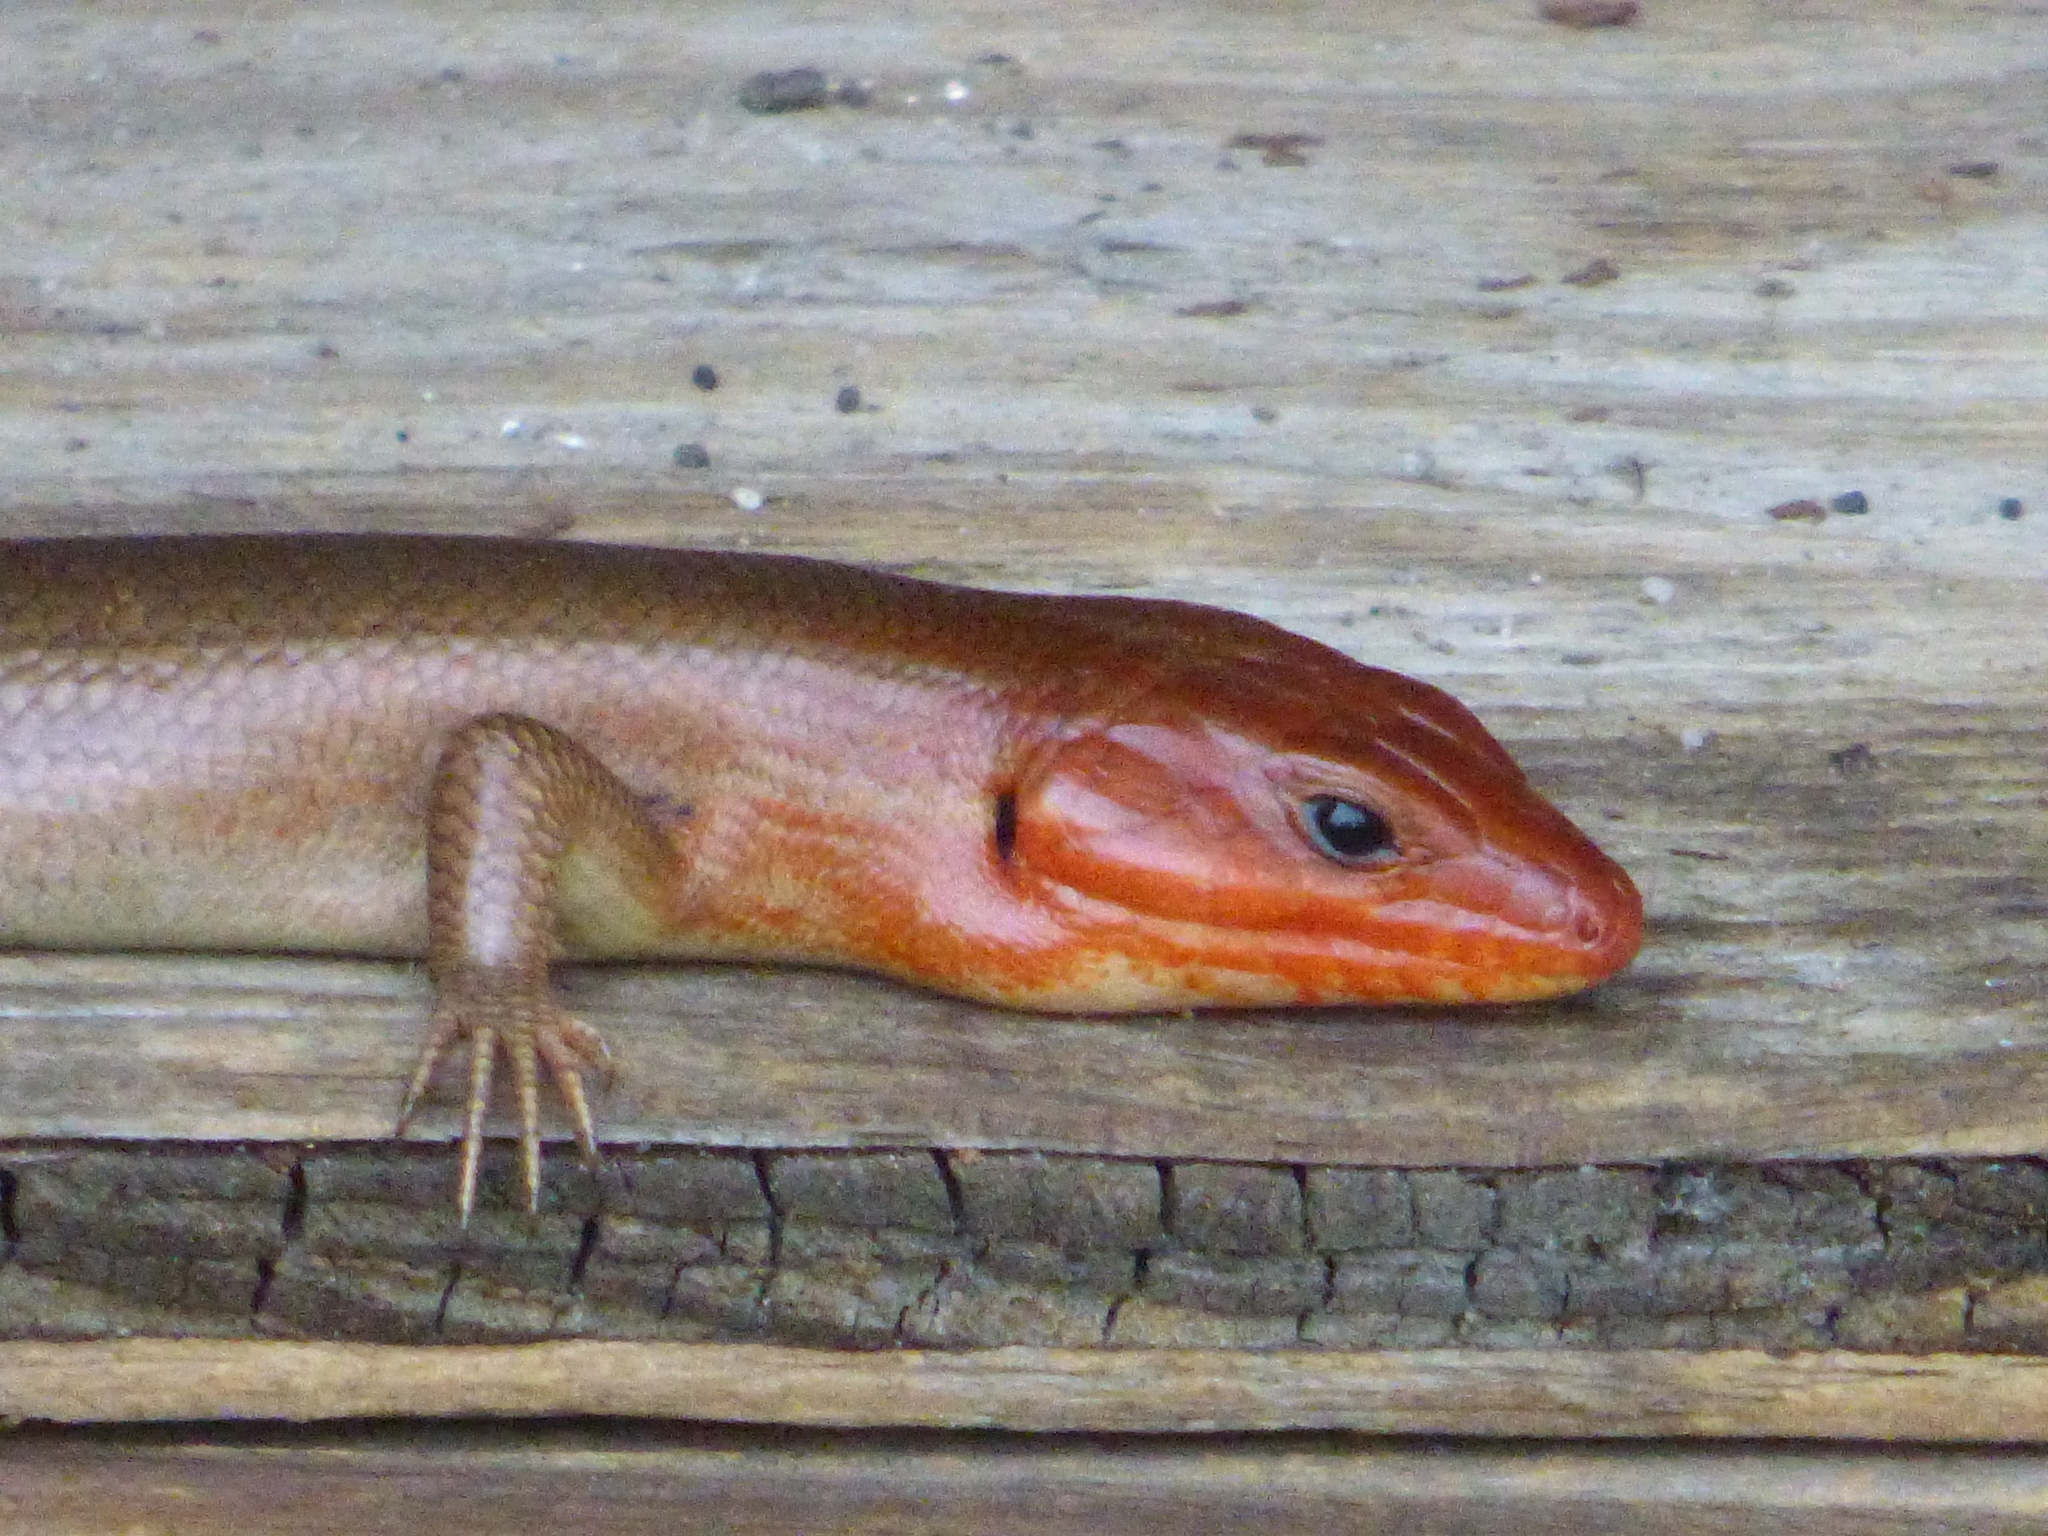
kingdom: Animalia
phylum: Chordata
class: Squamata
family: Scincidae
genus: Plestiodon
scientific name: Plestiodon laticeps
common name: Broadhead skink
